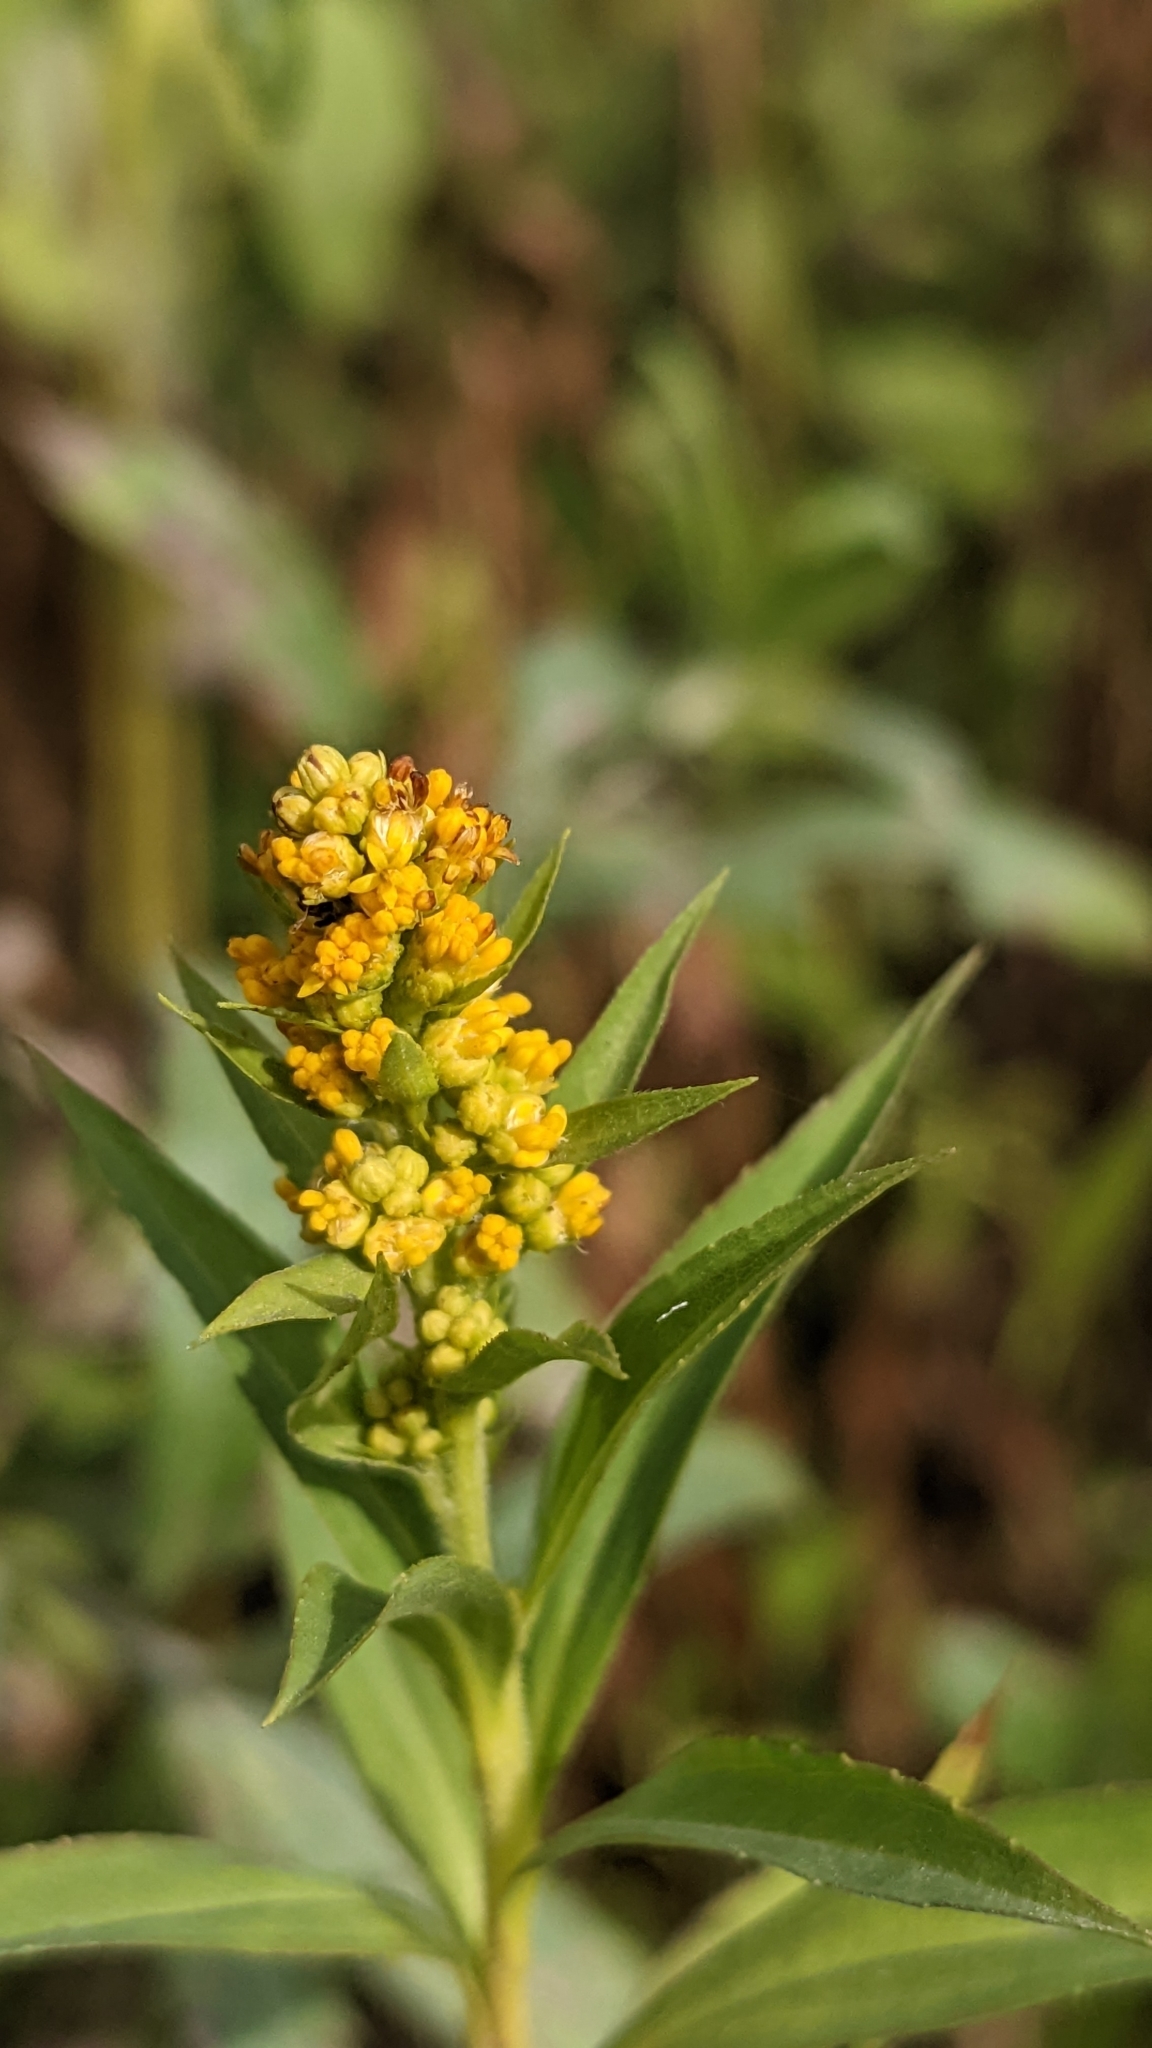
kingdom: Plantae
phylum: Tracheophyta
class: Magnoliopsida
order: Asterales
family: Asteraceae
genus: Solidago
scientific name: Solidago gigantea
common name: Giant goldenrod
